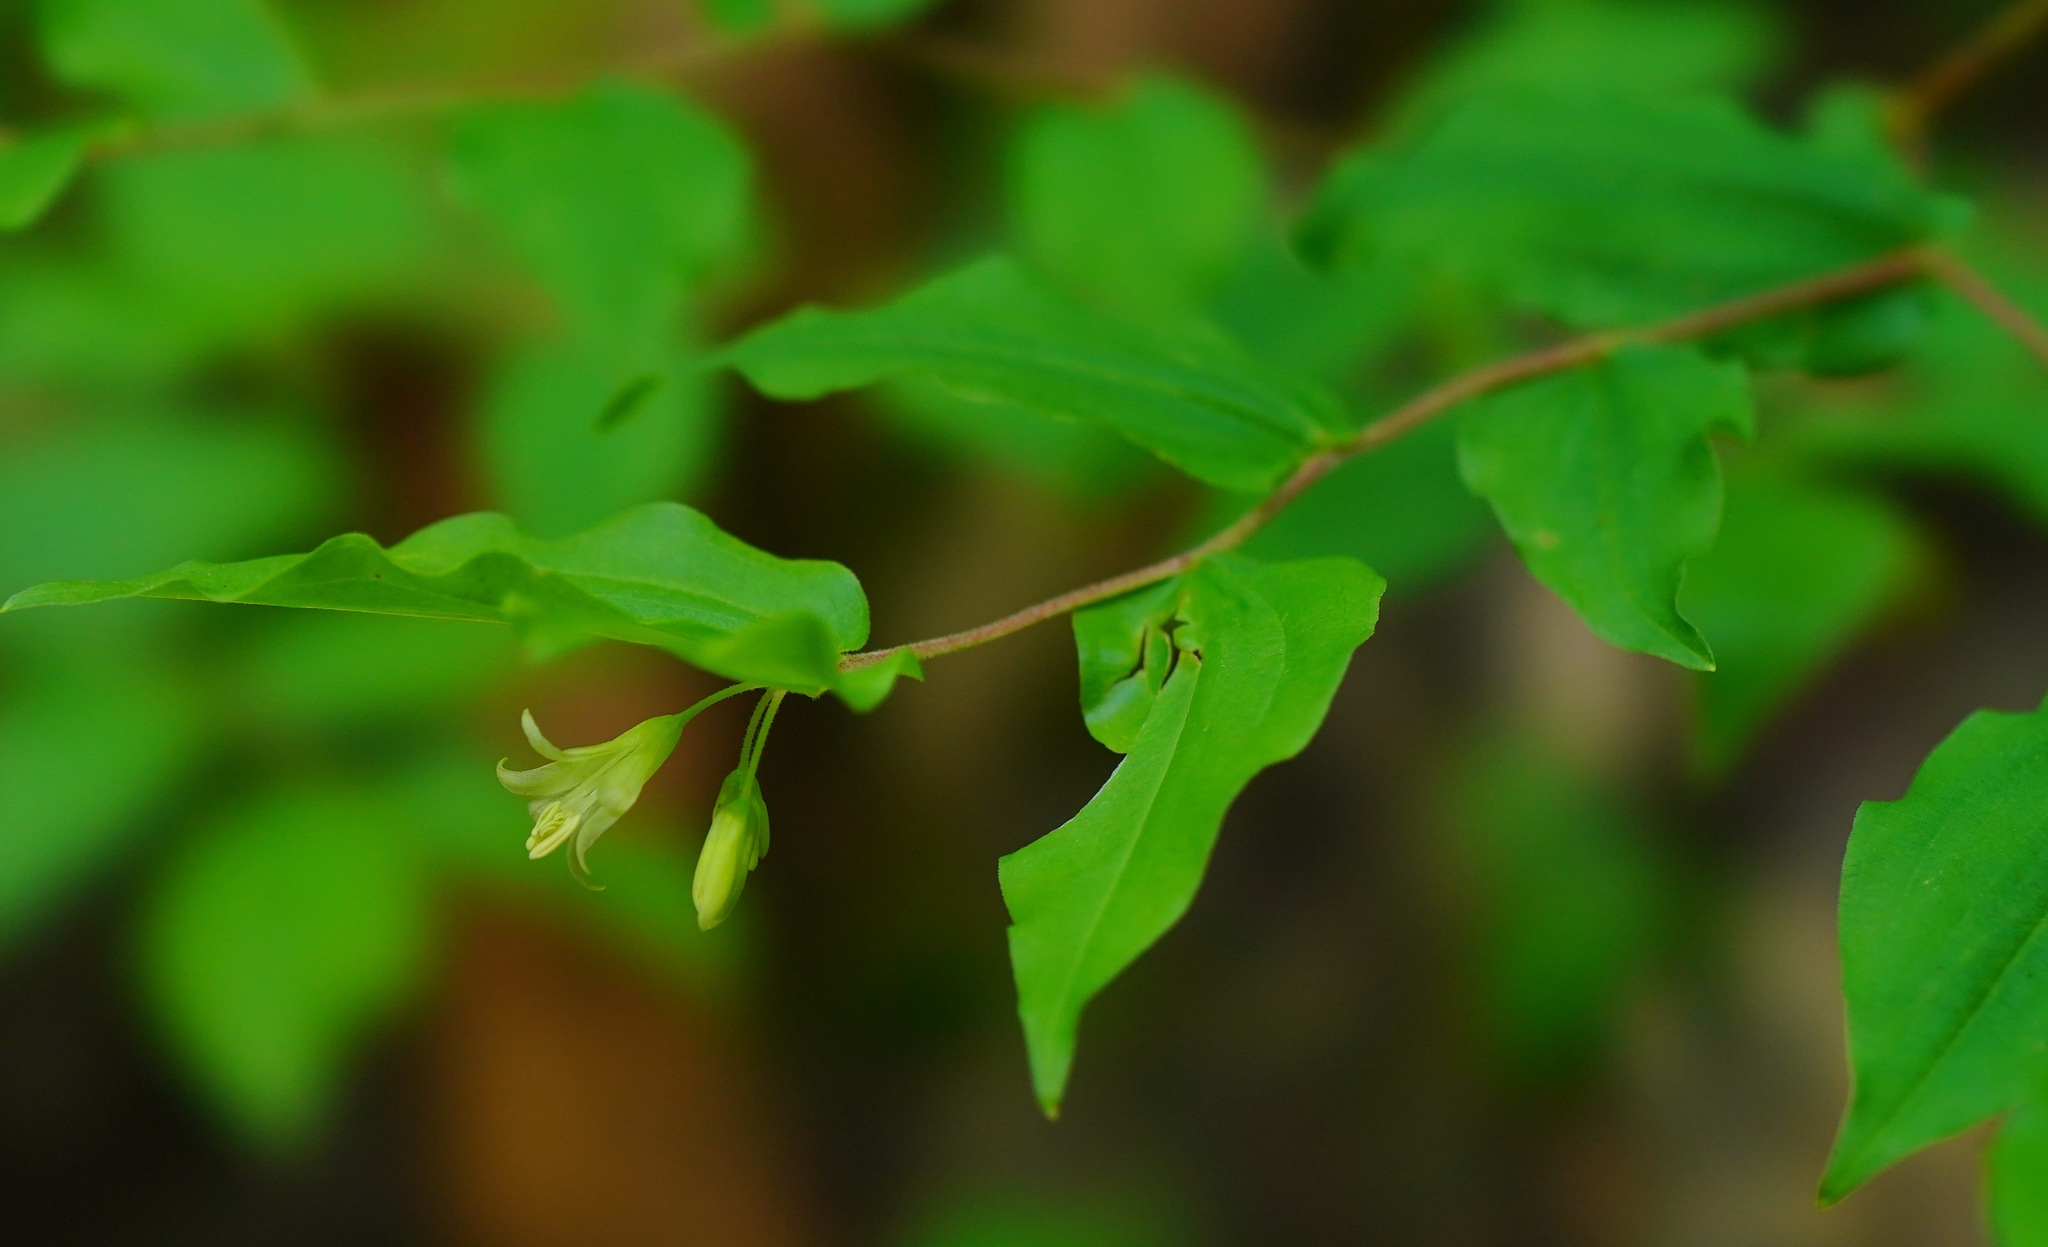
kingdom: Plantae
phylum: Tracheophyta
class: Liliopsida
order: Liliales
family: Liliaceae
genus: Prosartes
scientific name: Prosartes hookeri
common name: Fairy-bells
